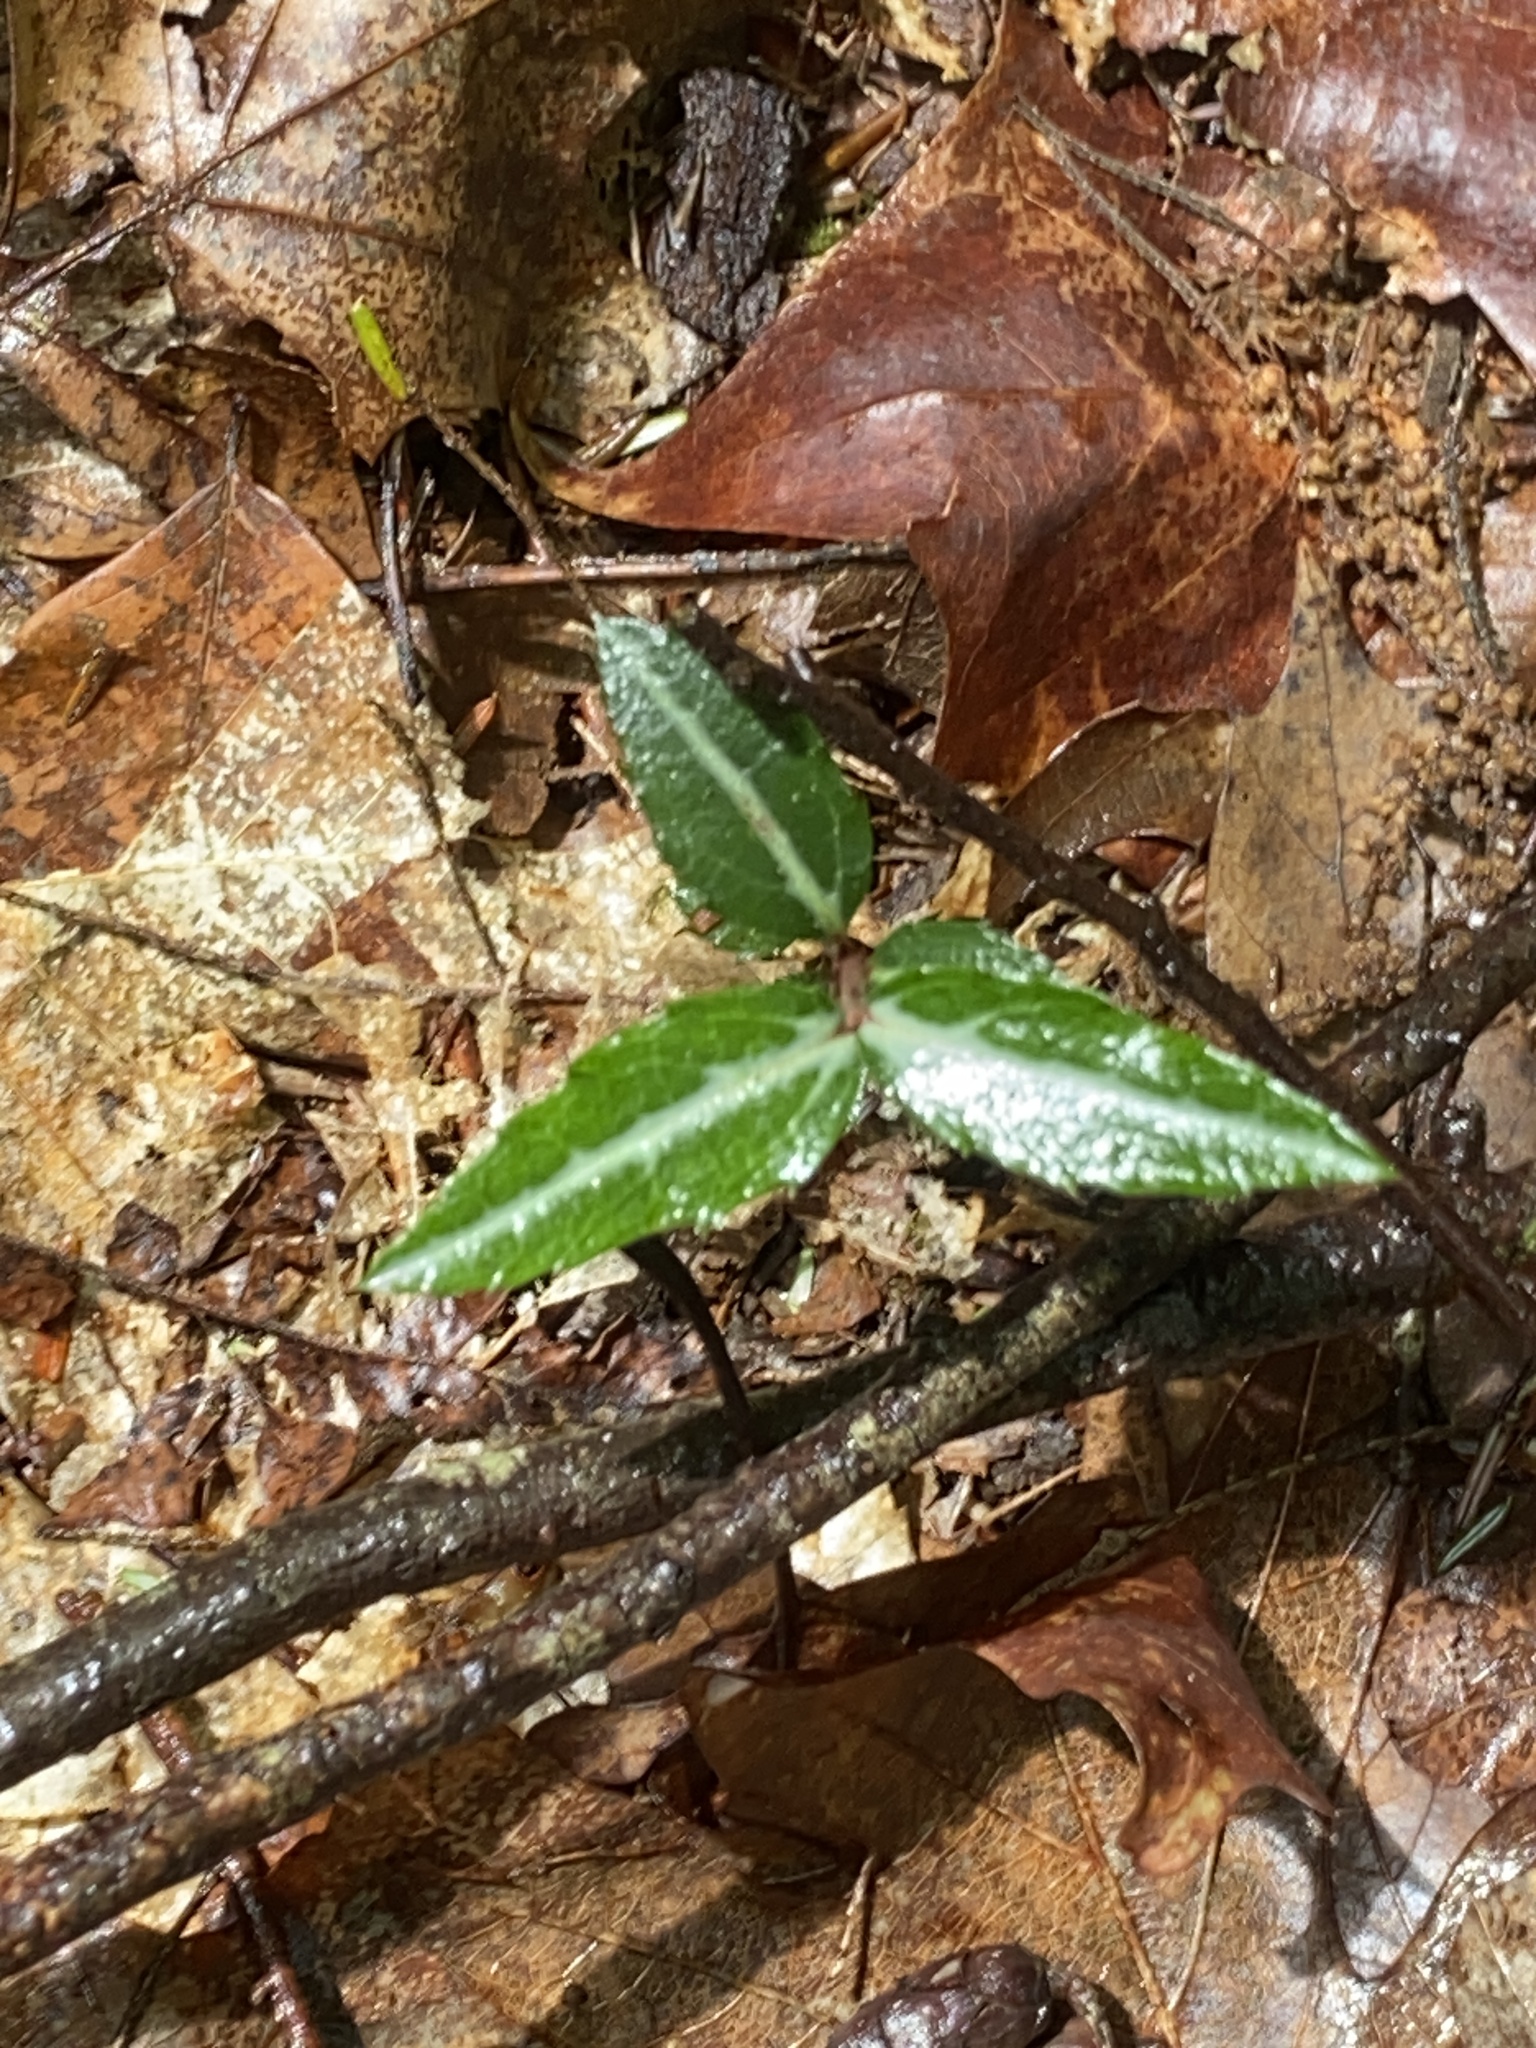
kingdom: Plantae
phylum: Tracheophyta
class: Magnoliopsida
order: Ericales
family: Ericaceae
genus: Chimaphila
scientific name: Chimaphila maculata
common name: Spotted pipsissewa
